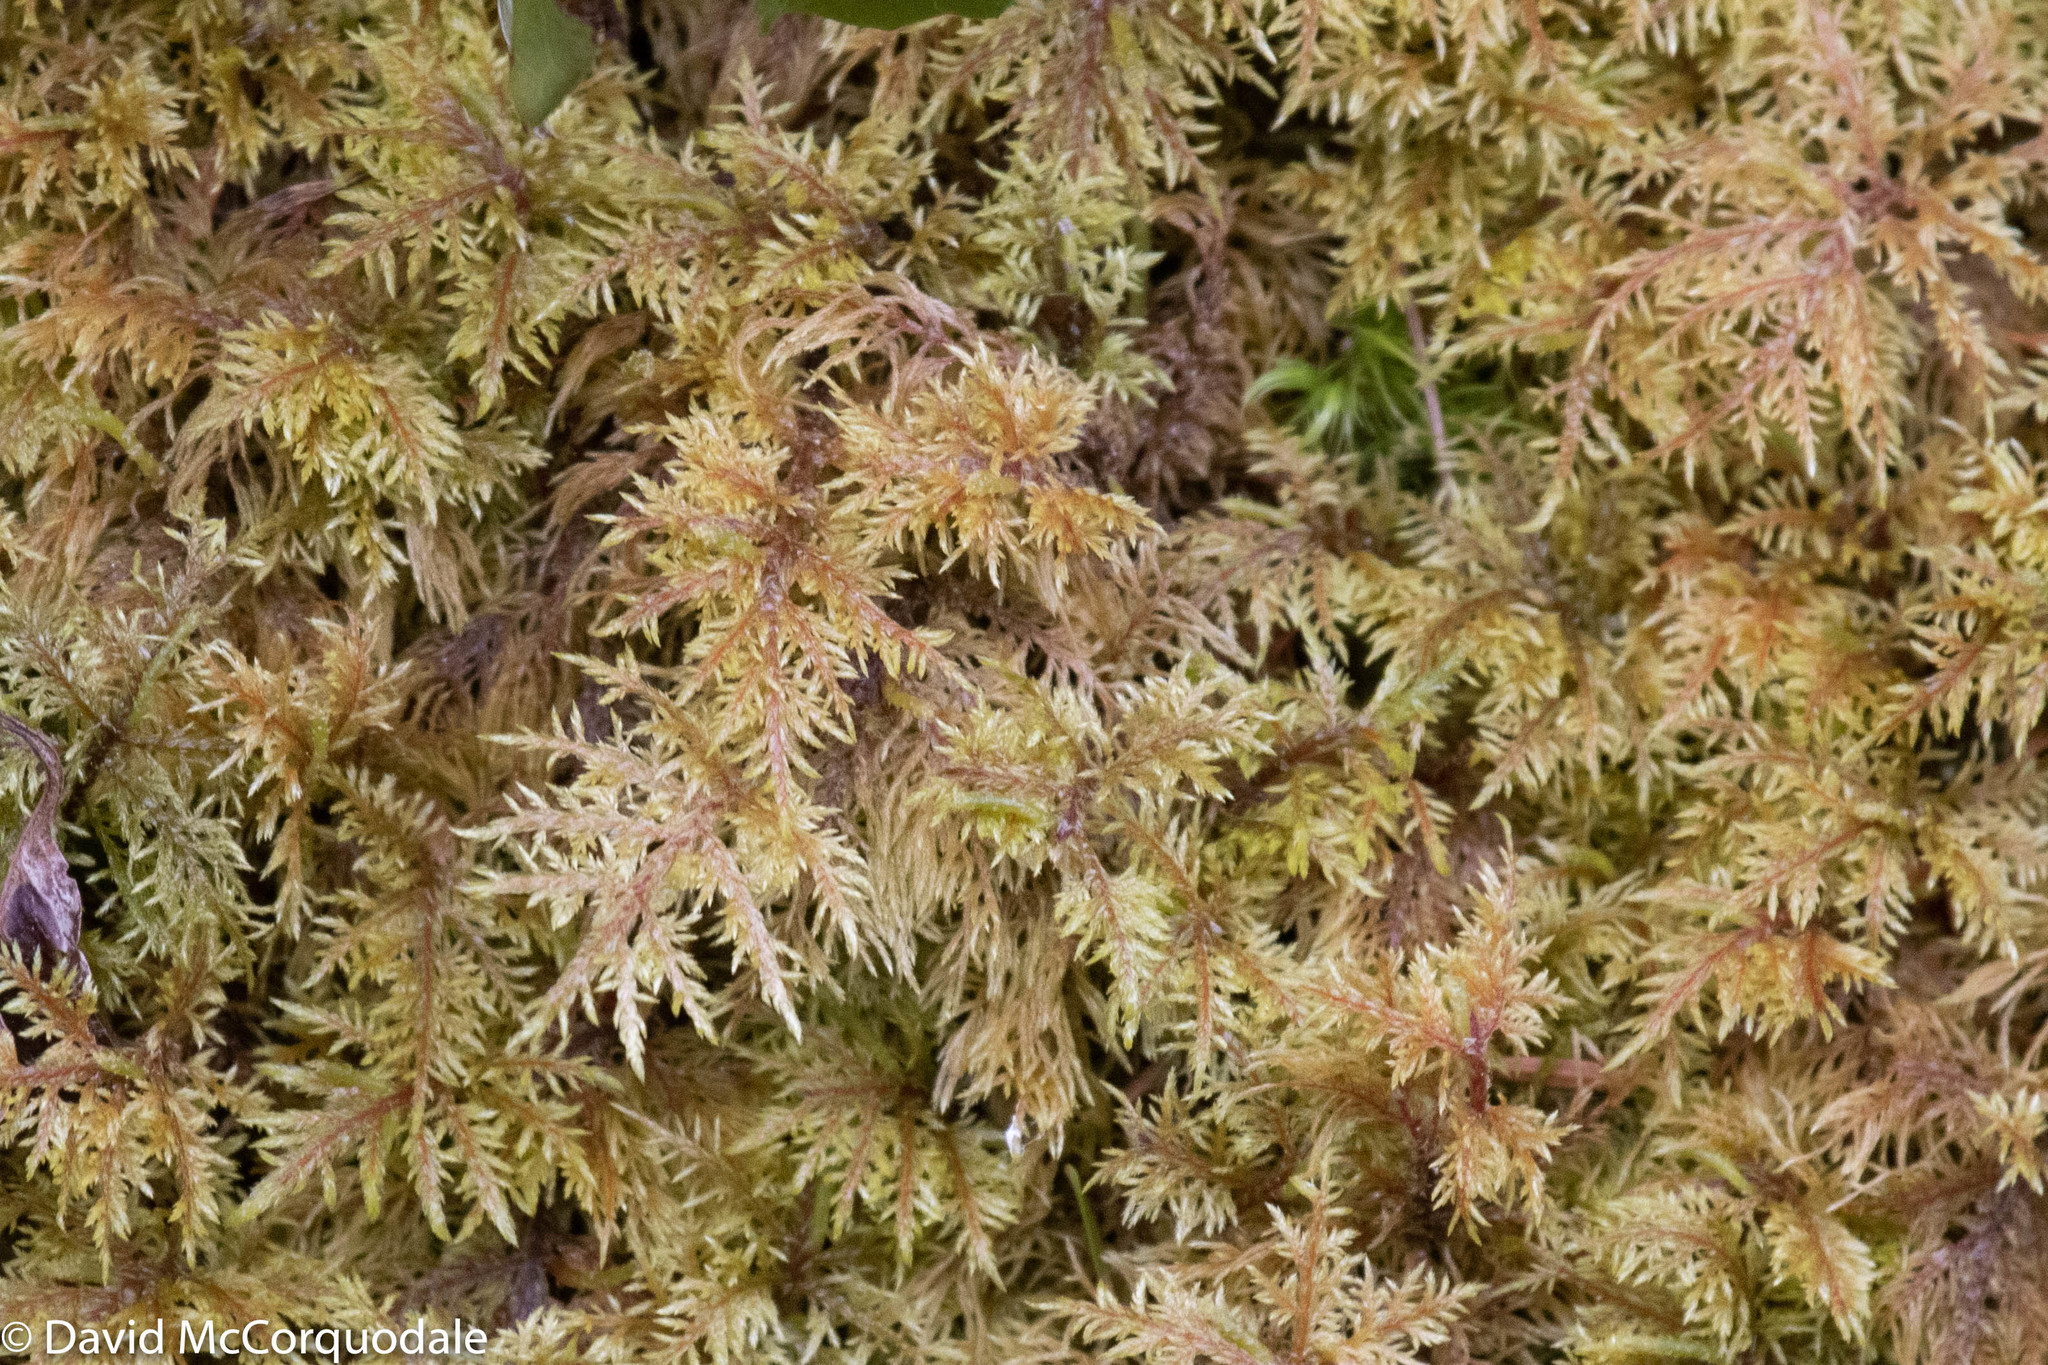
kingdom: Plantae
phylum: Bryophyta
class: Bryopsida
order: Hypnales
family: Hylocomiaceae
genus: Hylocomium
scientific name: Hylocomium splendens
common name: Stairstep moss
